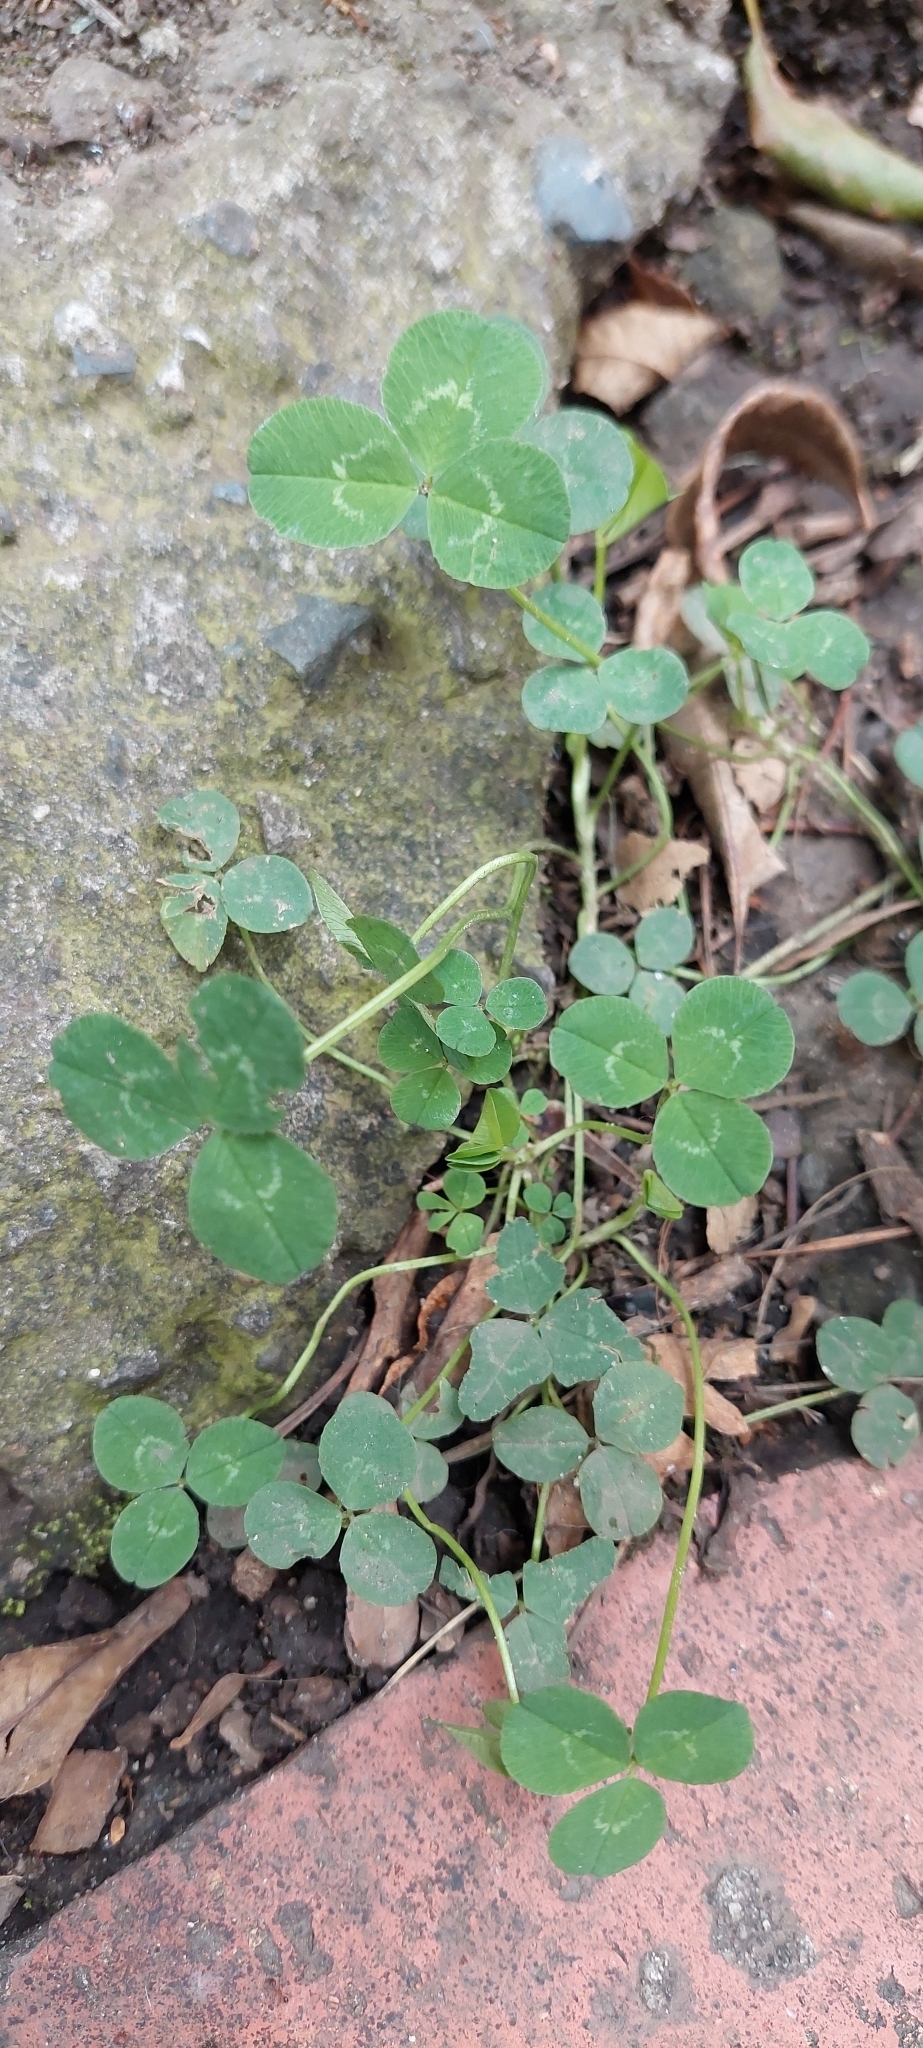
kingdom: Plantae
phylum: Tracheophyta
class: Magnoliopsida
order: Fabales
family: Fabaceae
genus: Trifolium
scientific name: Trifolium repens
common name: White clover
